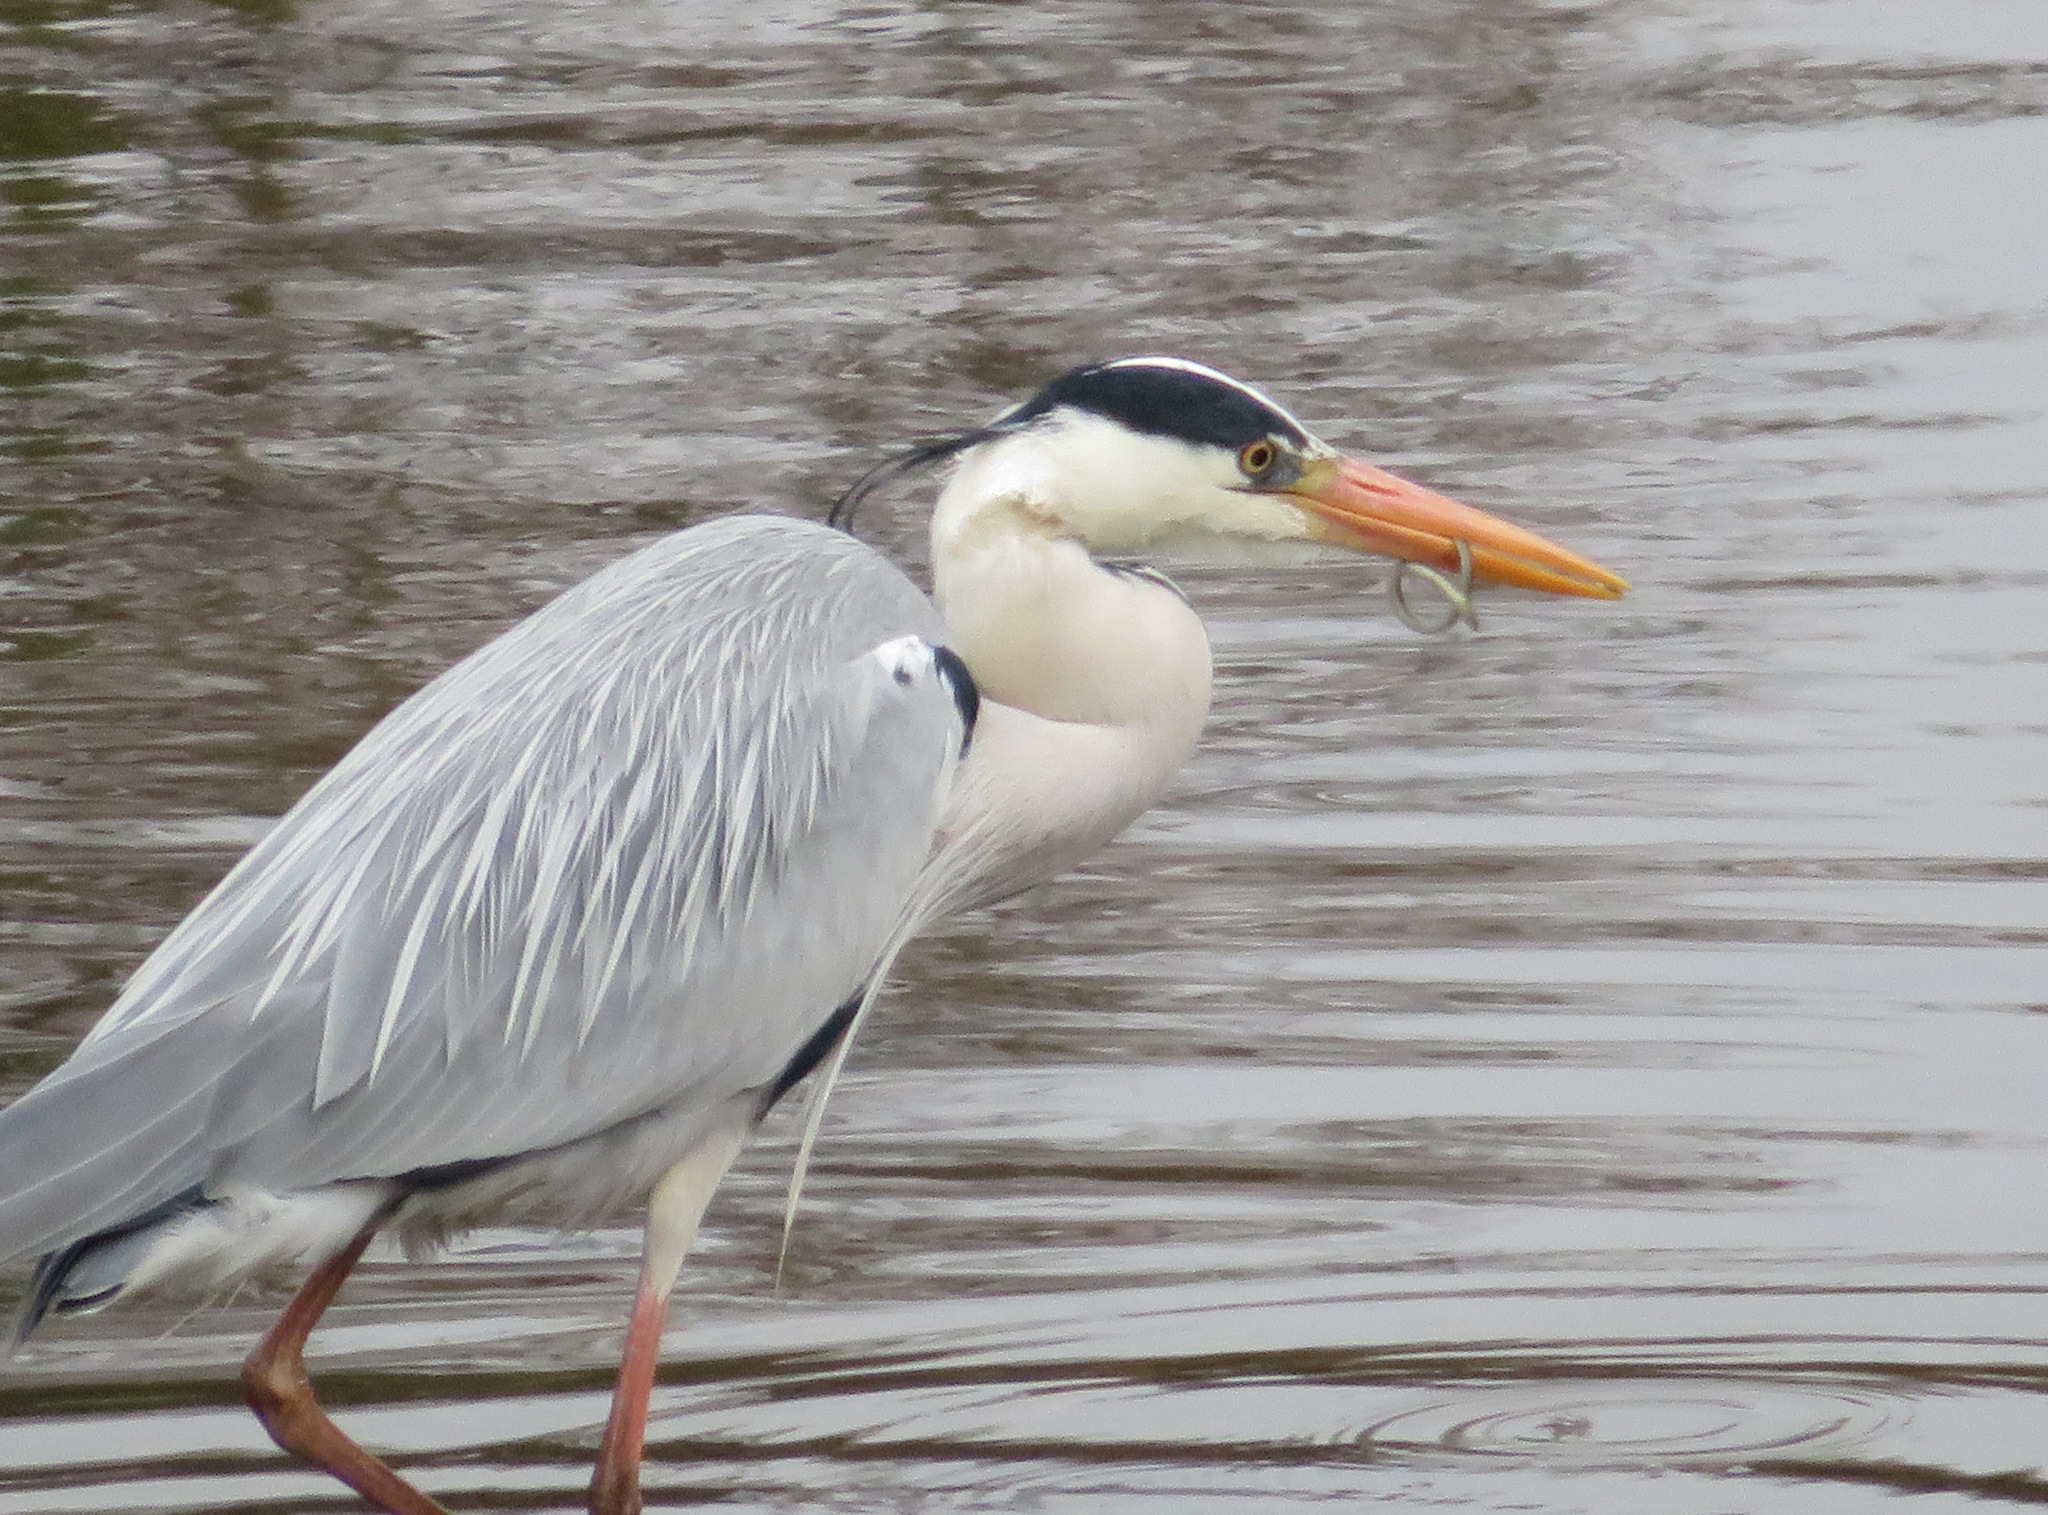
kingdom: Animalia
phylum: Chordata
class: Aves
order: Pelecaniformes
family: Ardeidae
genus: Ardea
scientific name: Ardea cinerea
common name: Grey heron
